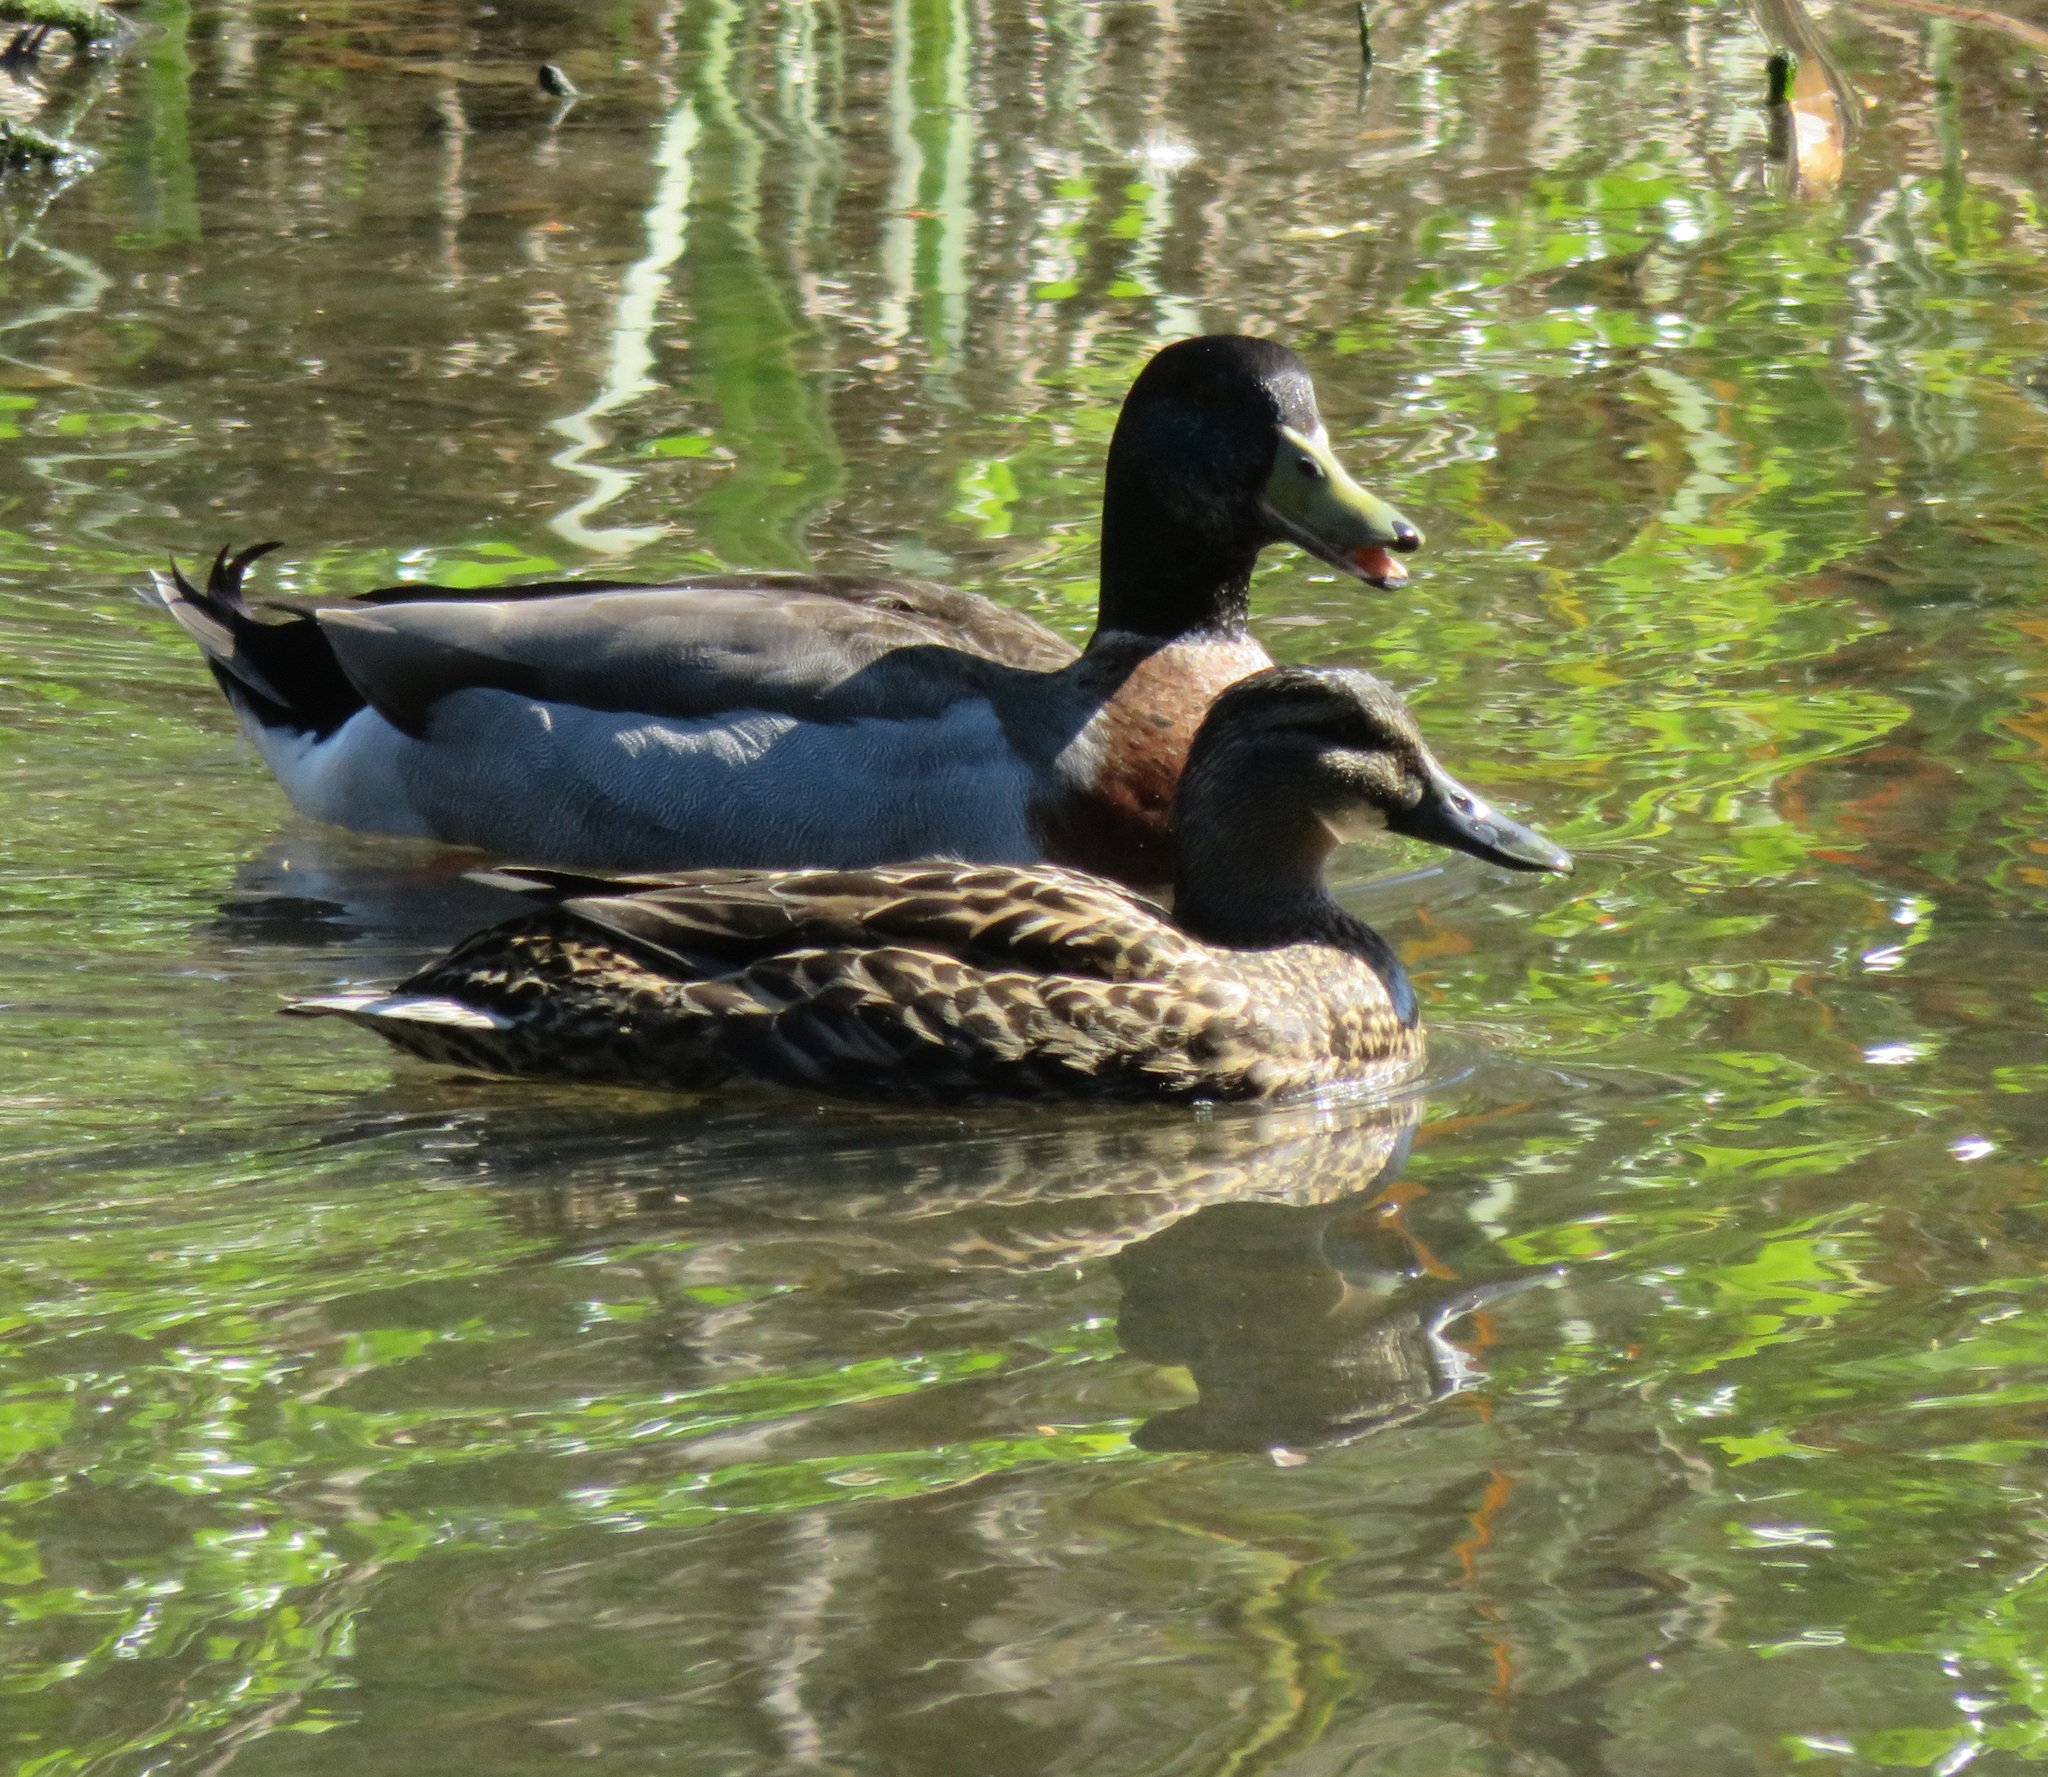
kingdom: Animalia
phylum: Chordata
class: Aves
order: Anseriformes
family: Anatidae
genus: Anas
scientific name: Anas platyrhynchos
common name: Mallard
